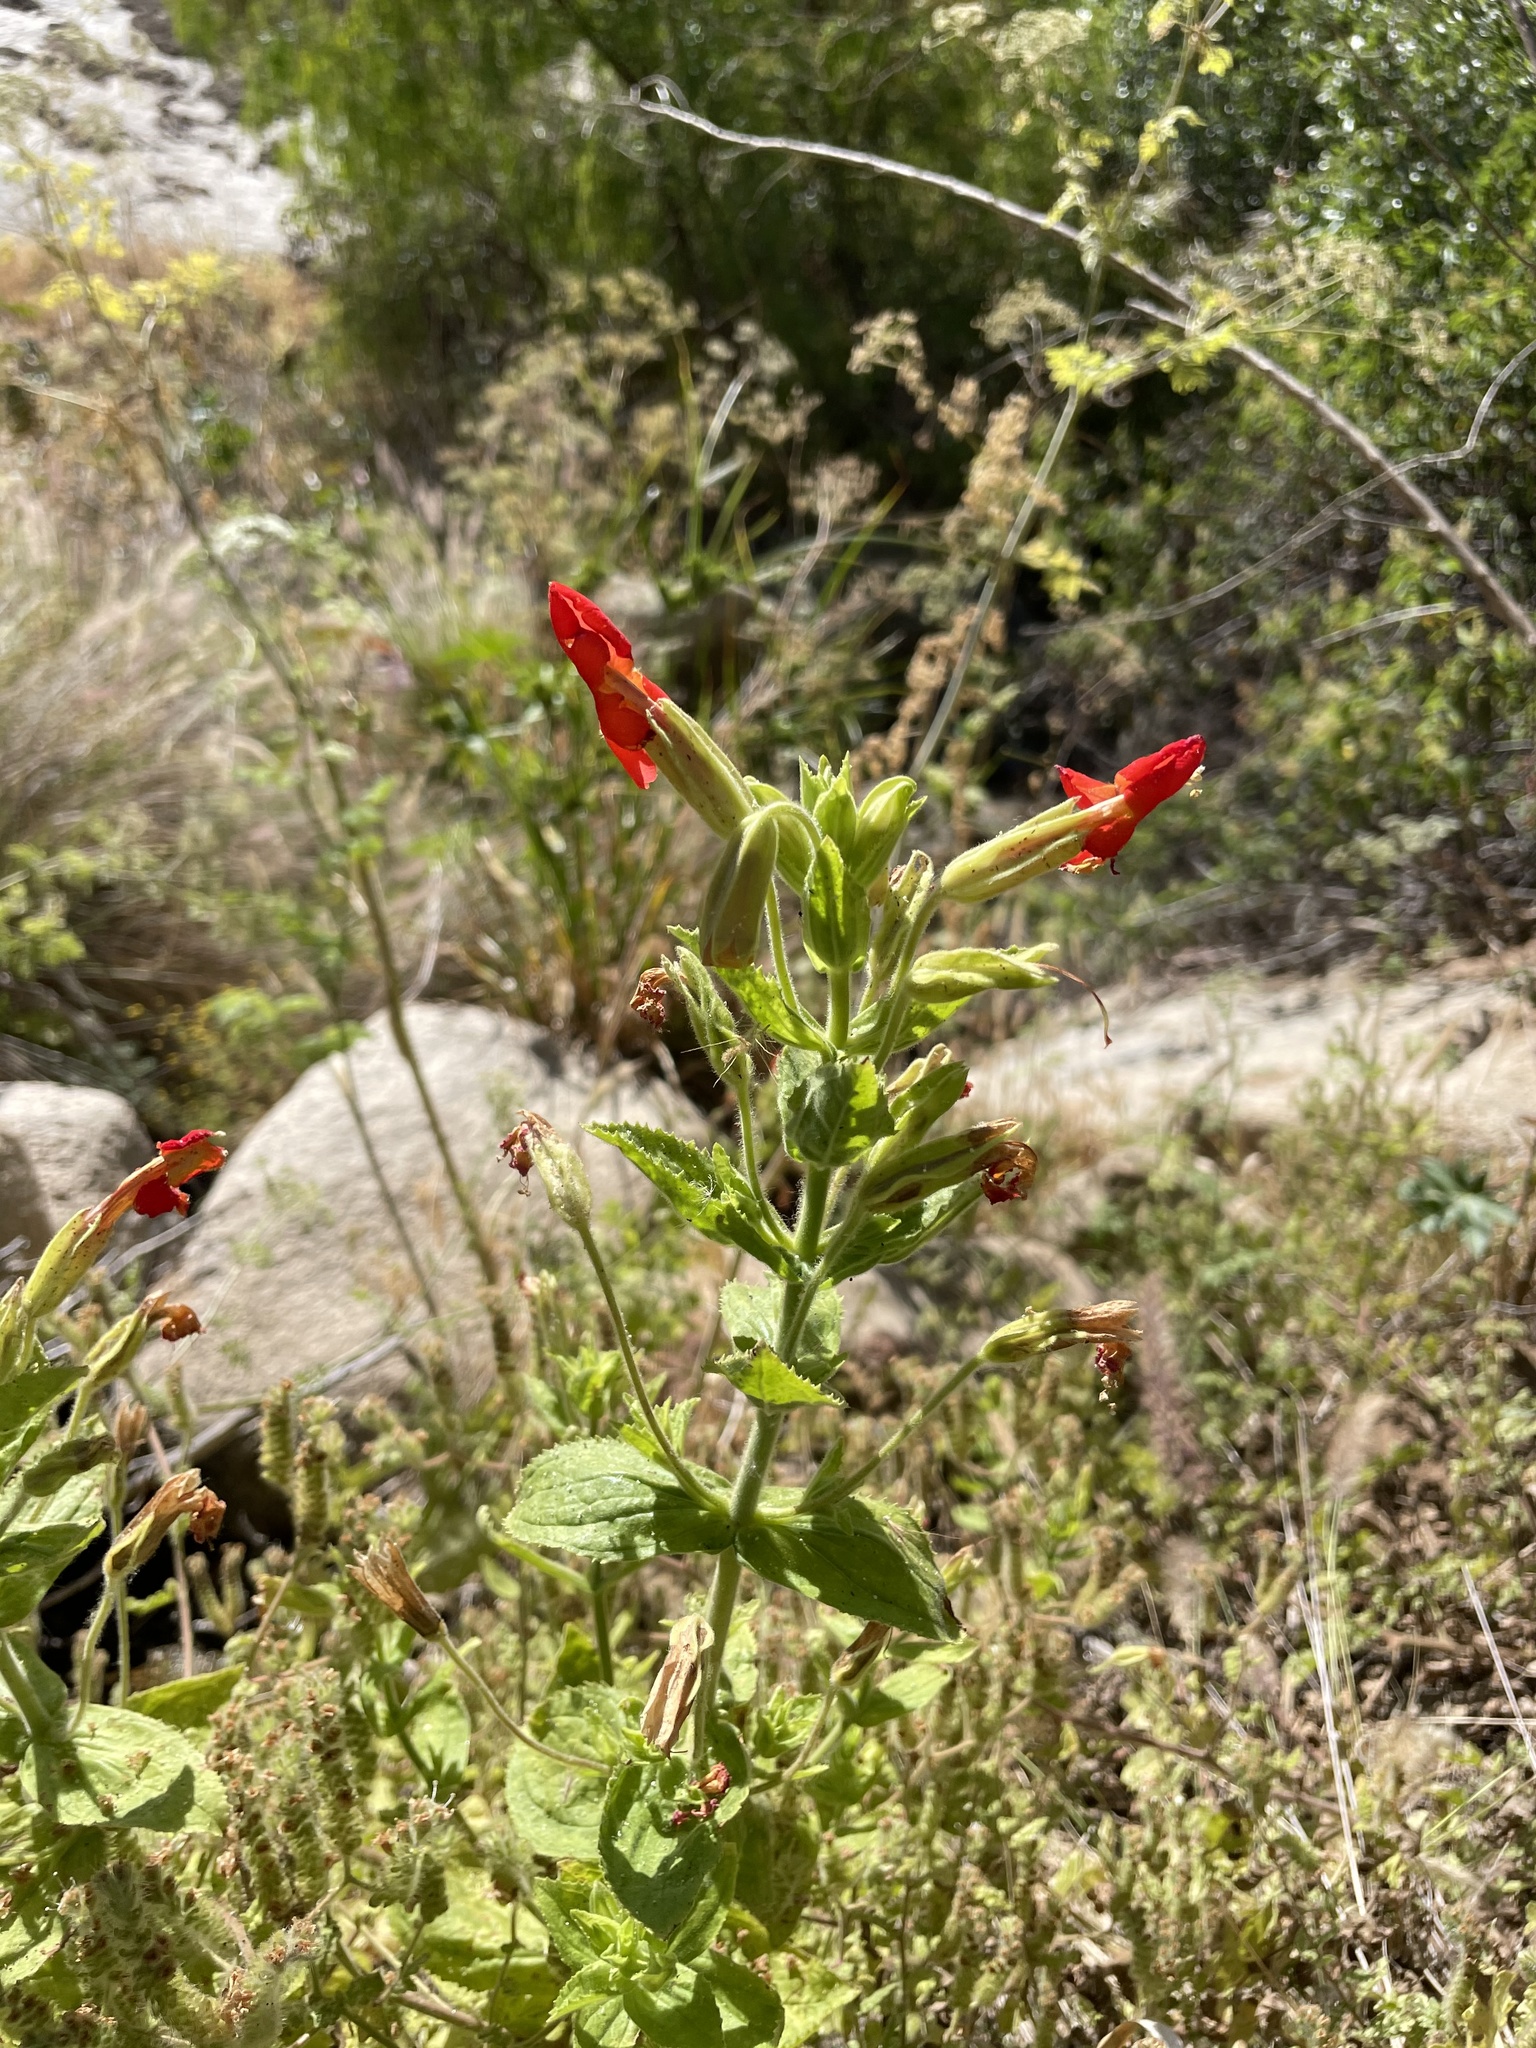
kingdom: Plantae
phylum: Tracheophyta
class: Magnoliopsida
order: Lamiales
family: Phrymaceae
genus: Erythranthe
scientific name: Erythranthe cardinalis
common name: Scarlet monkey-flower
